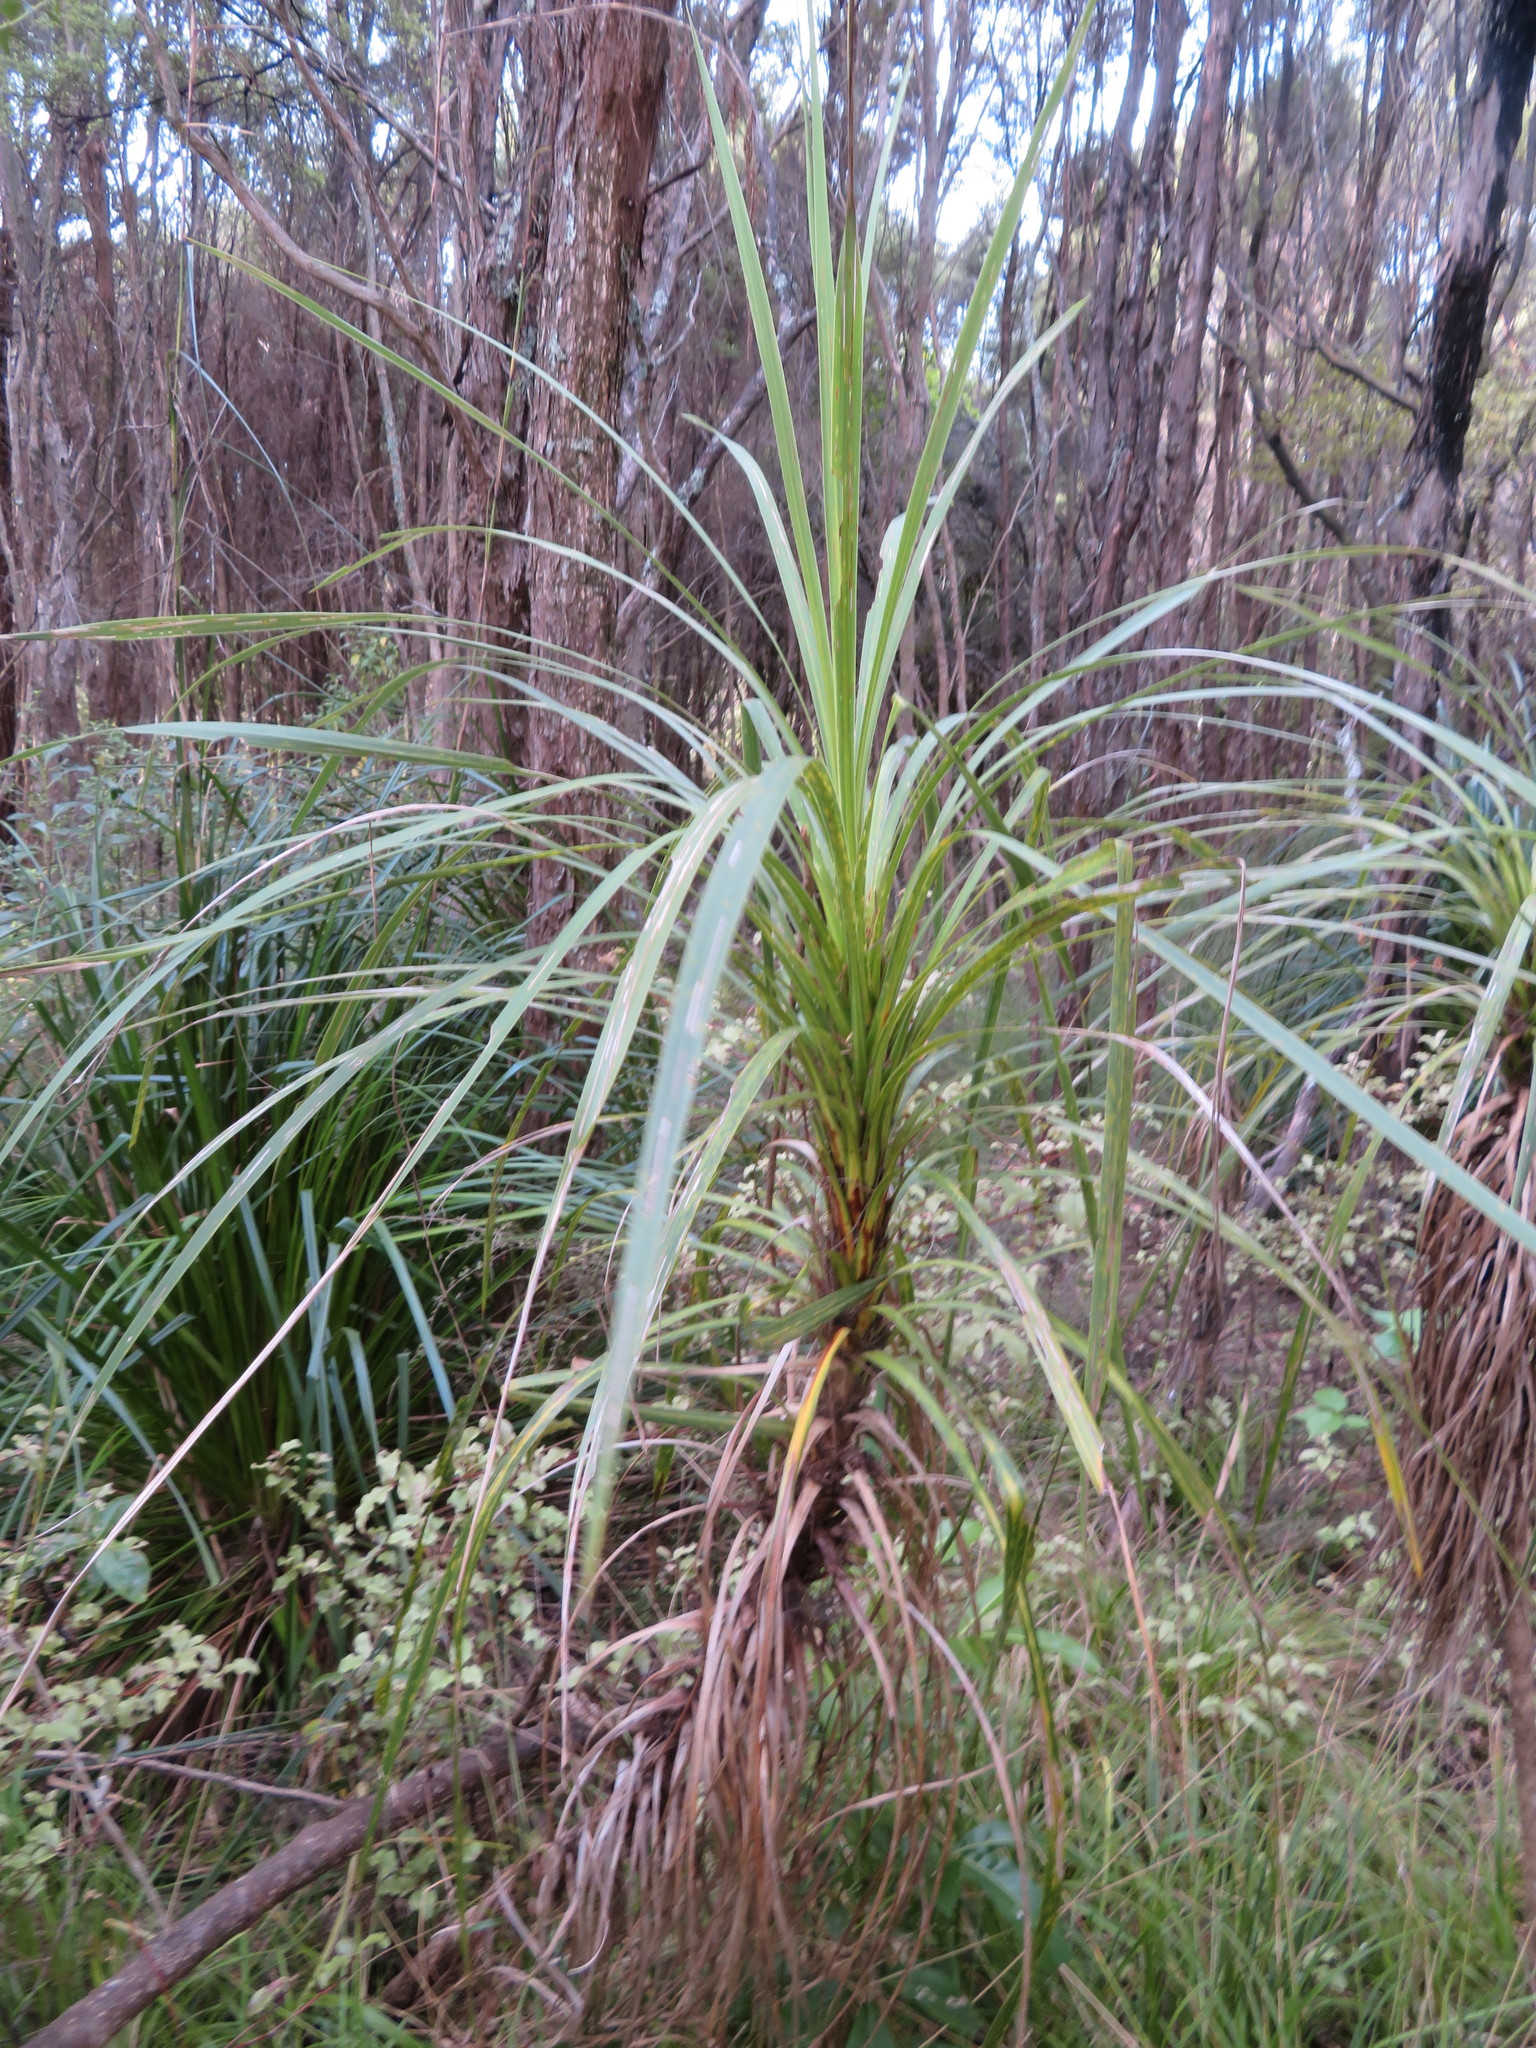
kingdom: Plantae
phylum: Tracheophyta
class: Liliopsida
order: Asparagales
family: Asparagaceae
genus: Cordyline
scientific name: Cordyline australis
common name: Cabbage-palm
